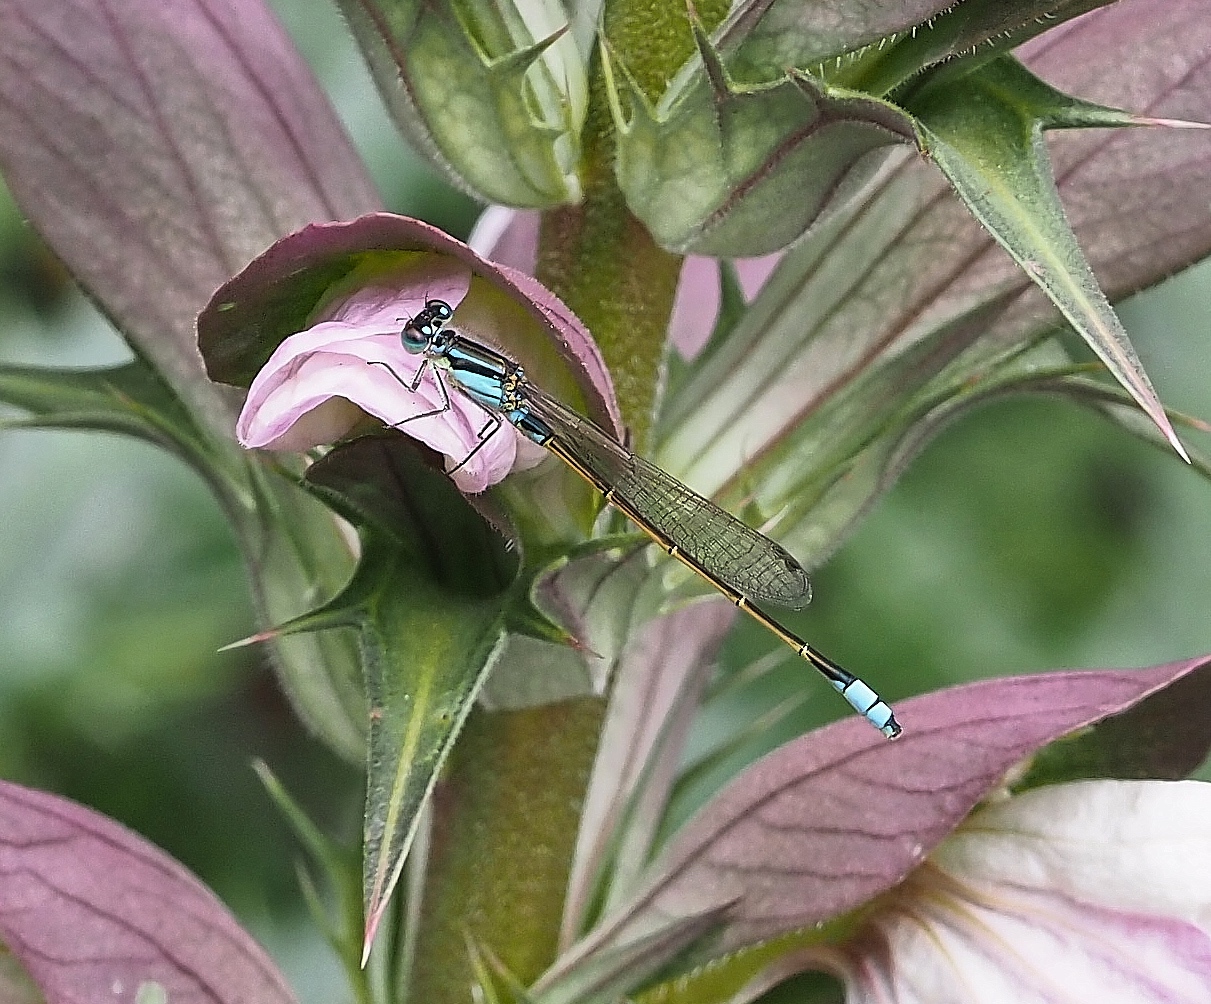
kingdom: Animalia
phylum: Arthropoda
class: Insecta
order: Odonata
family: Coenagrionidae
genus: Ischnura
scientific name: Ischnura heterosticta
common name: Common bluetail
